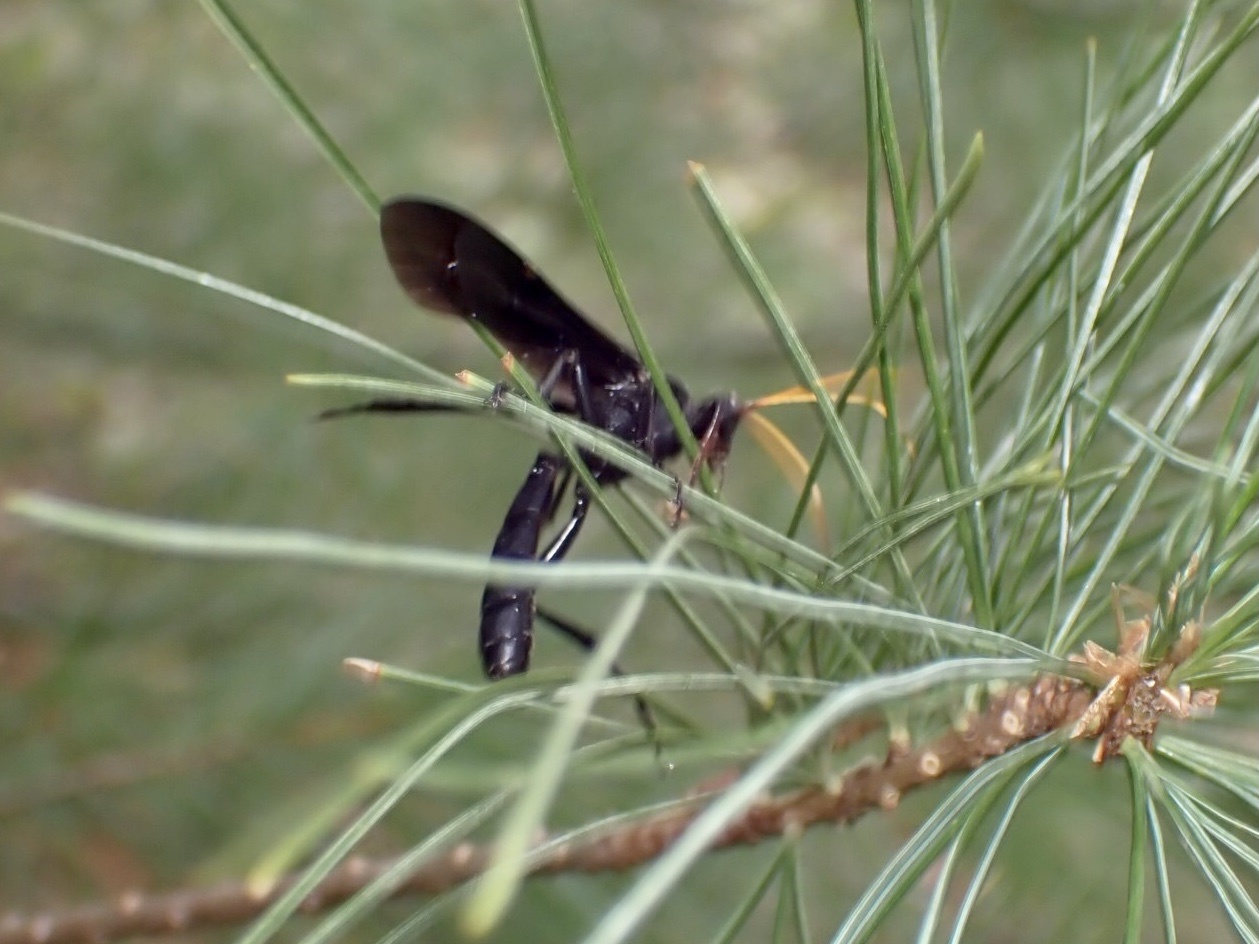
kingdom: Animalia
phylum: Arthropoda
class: Insecta
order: Hymenoptera
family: Ichneumonidae
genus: Gnamptopelta
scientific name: Gnamptopelta obsidianator
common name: Bent-shielded besieger wasp
